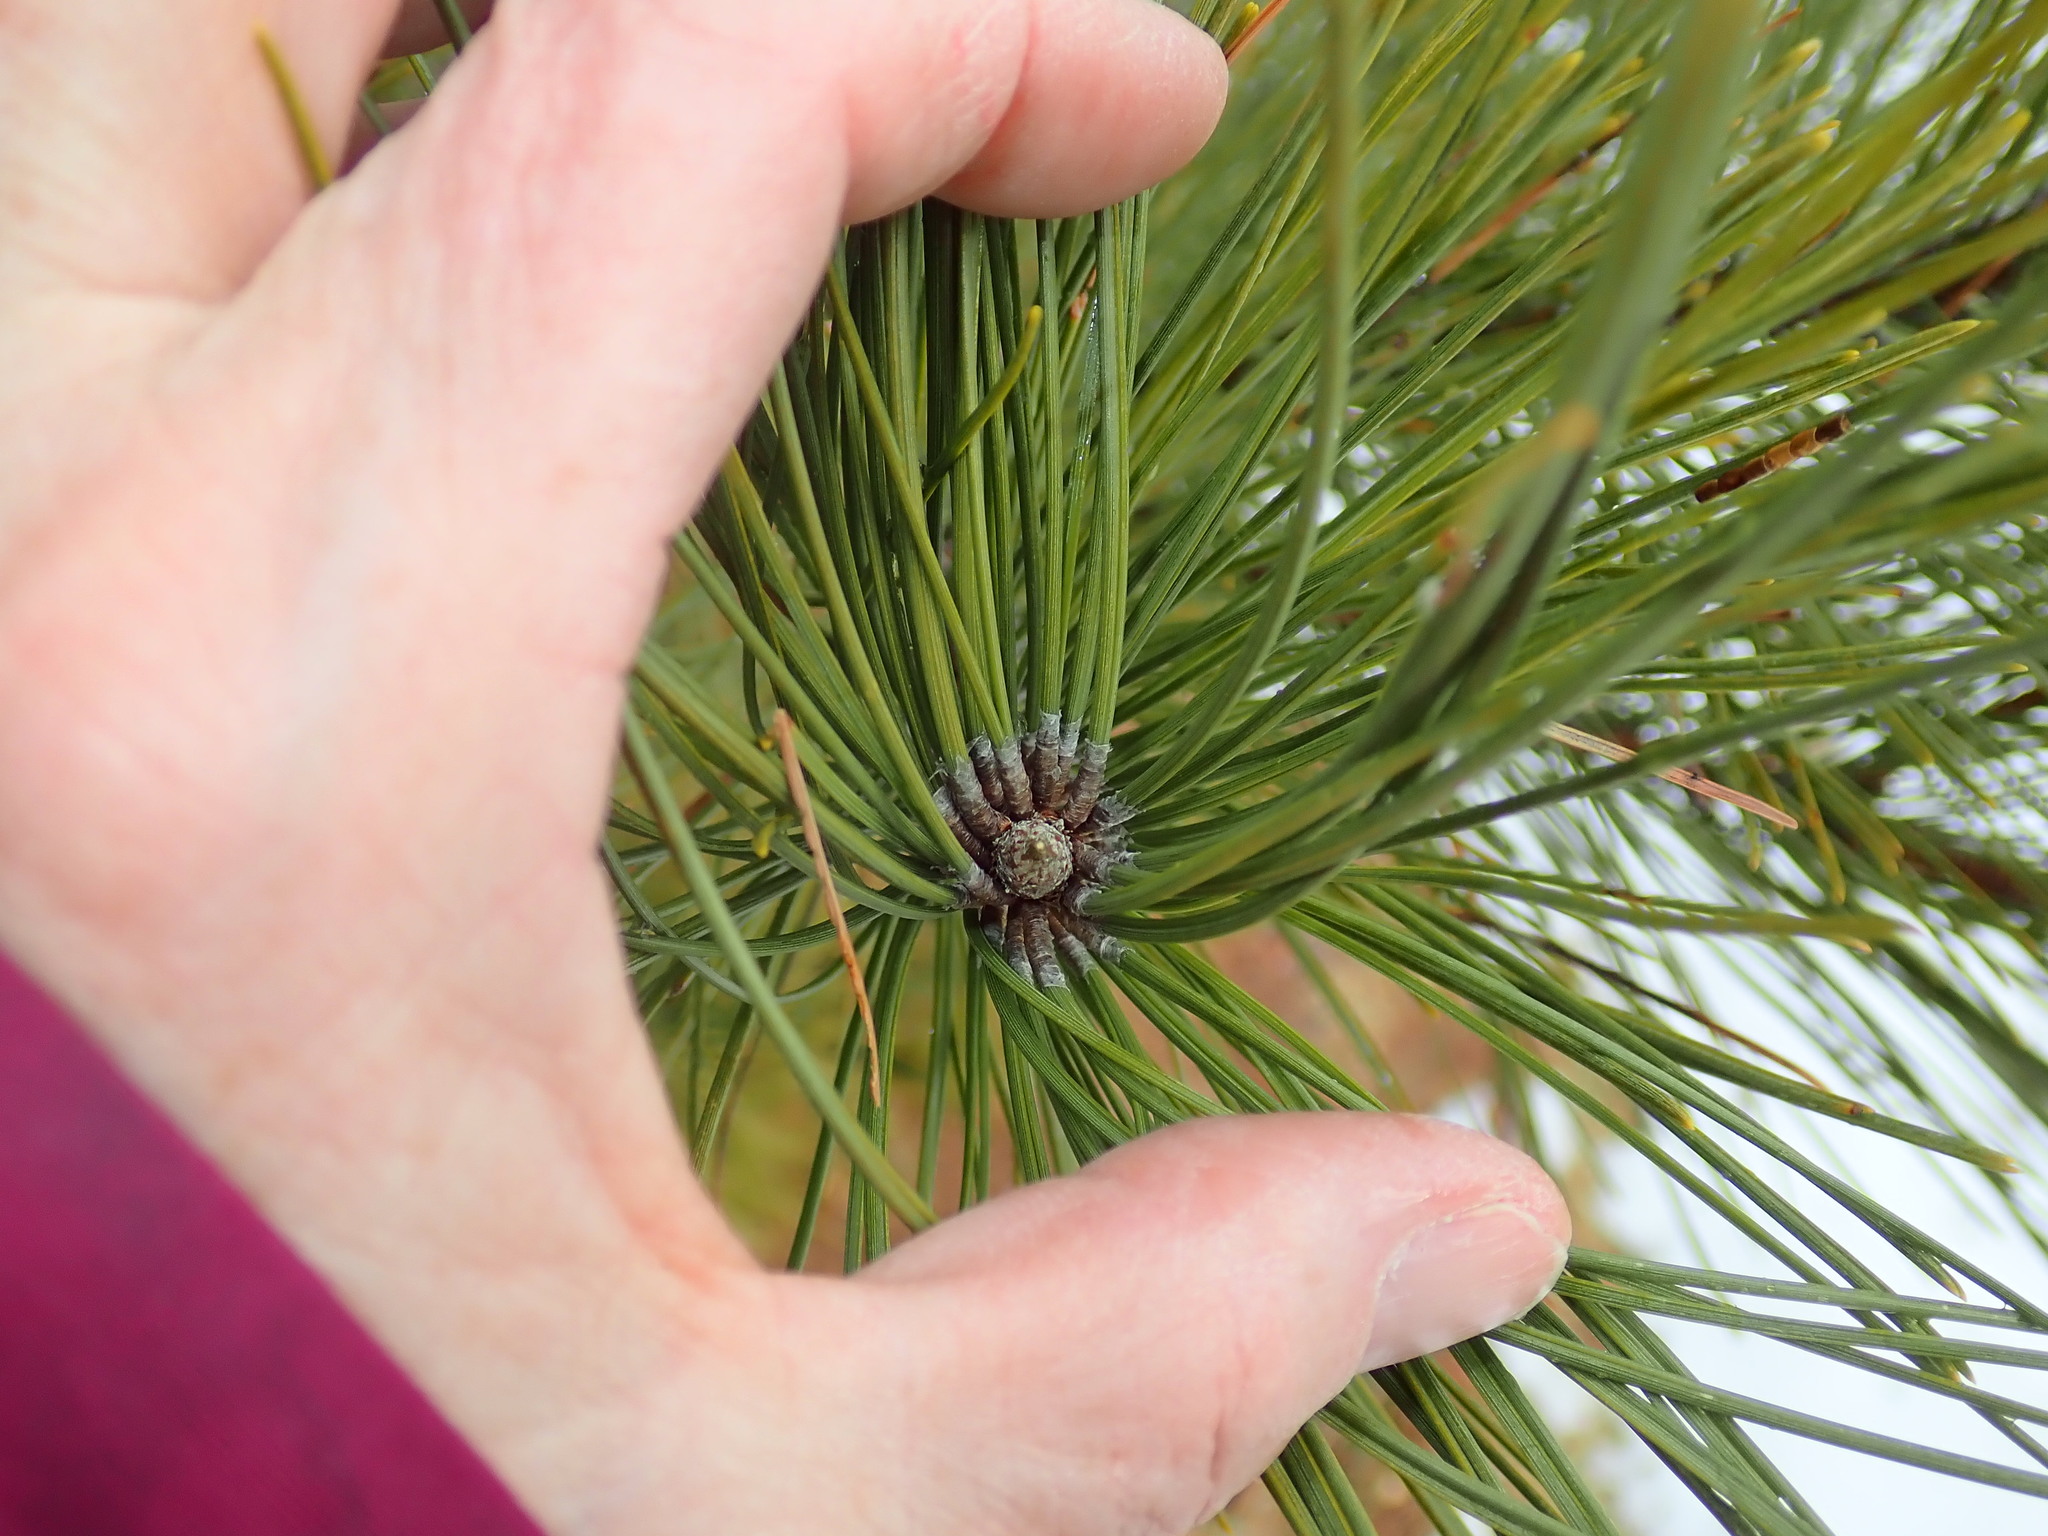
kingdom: Plantae
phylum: Tracheophyta
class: Pinopsida
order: Pinales
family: Pinaceae
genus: Pinus
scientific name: Pinus resinosa
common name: Norway pine
